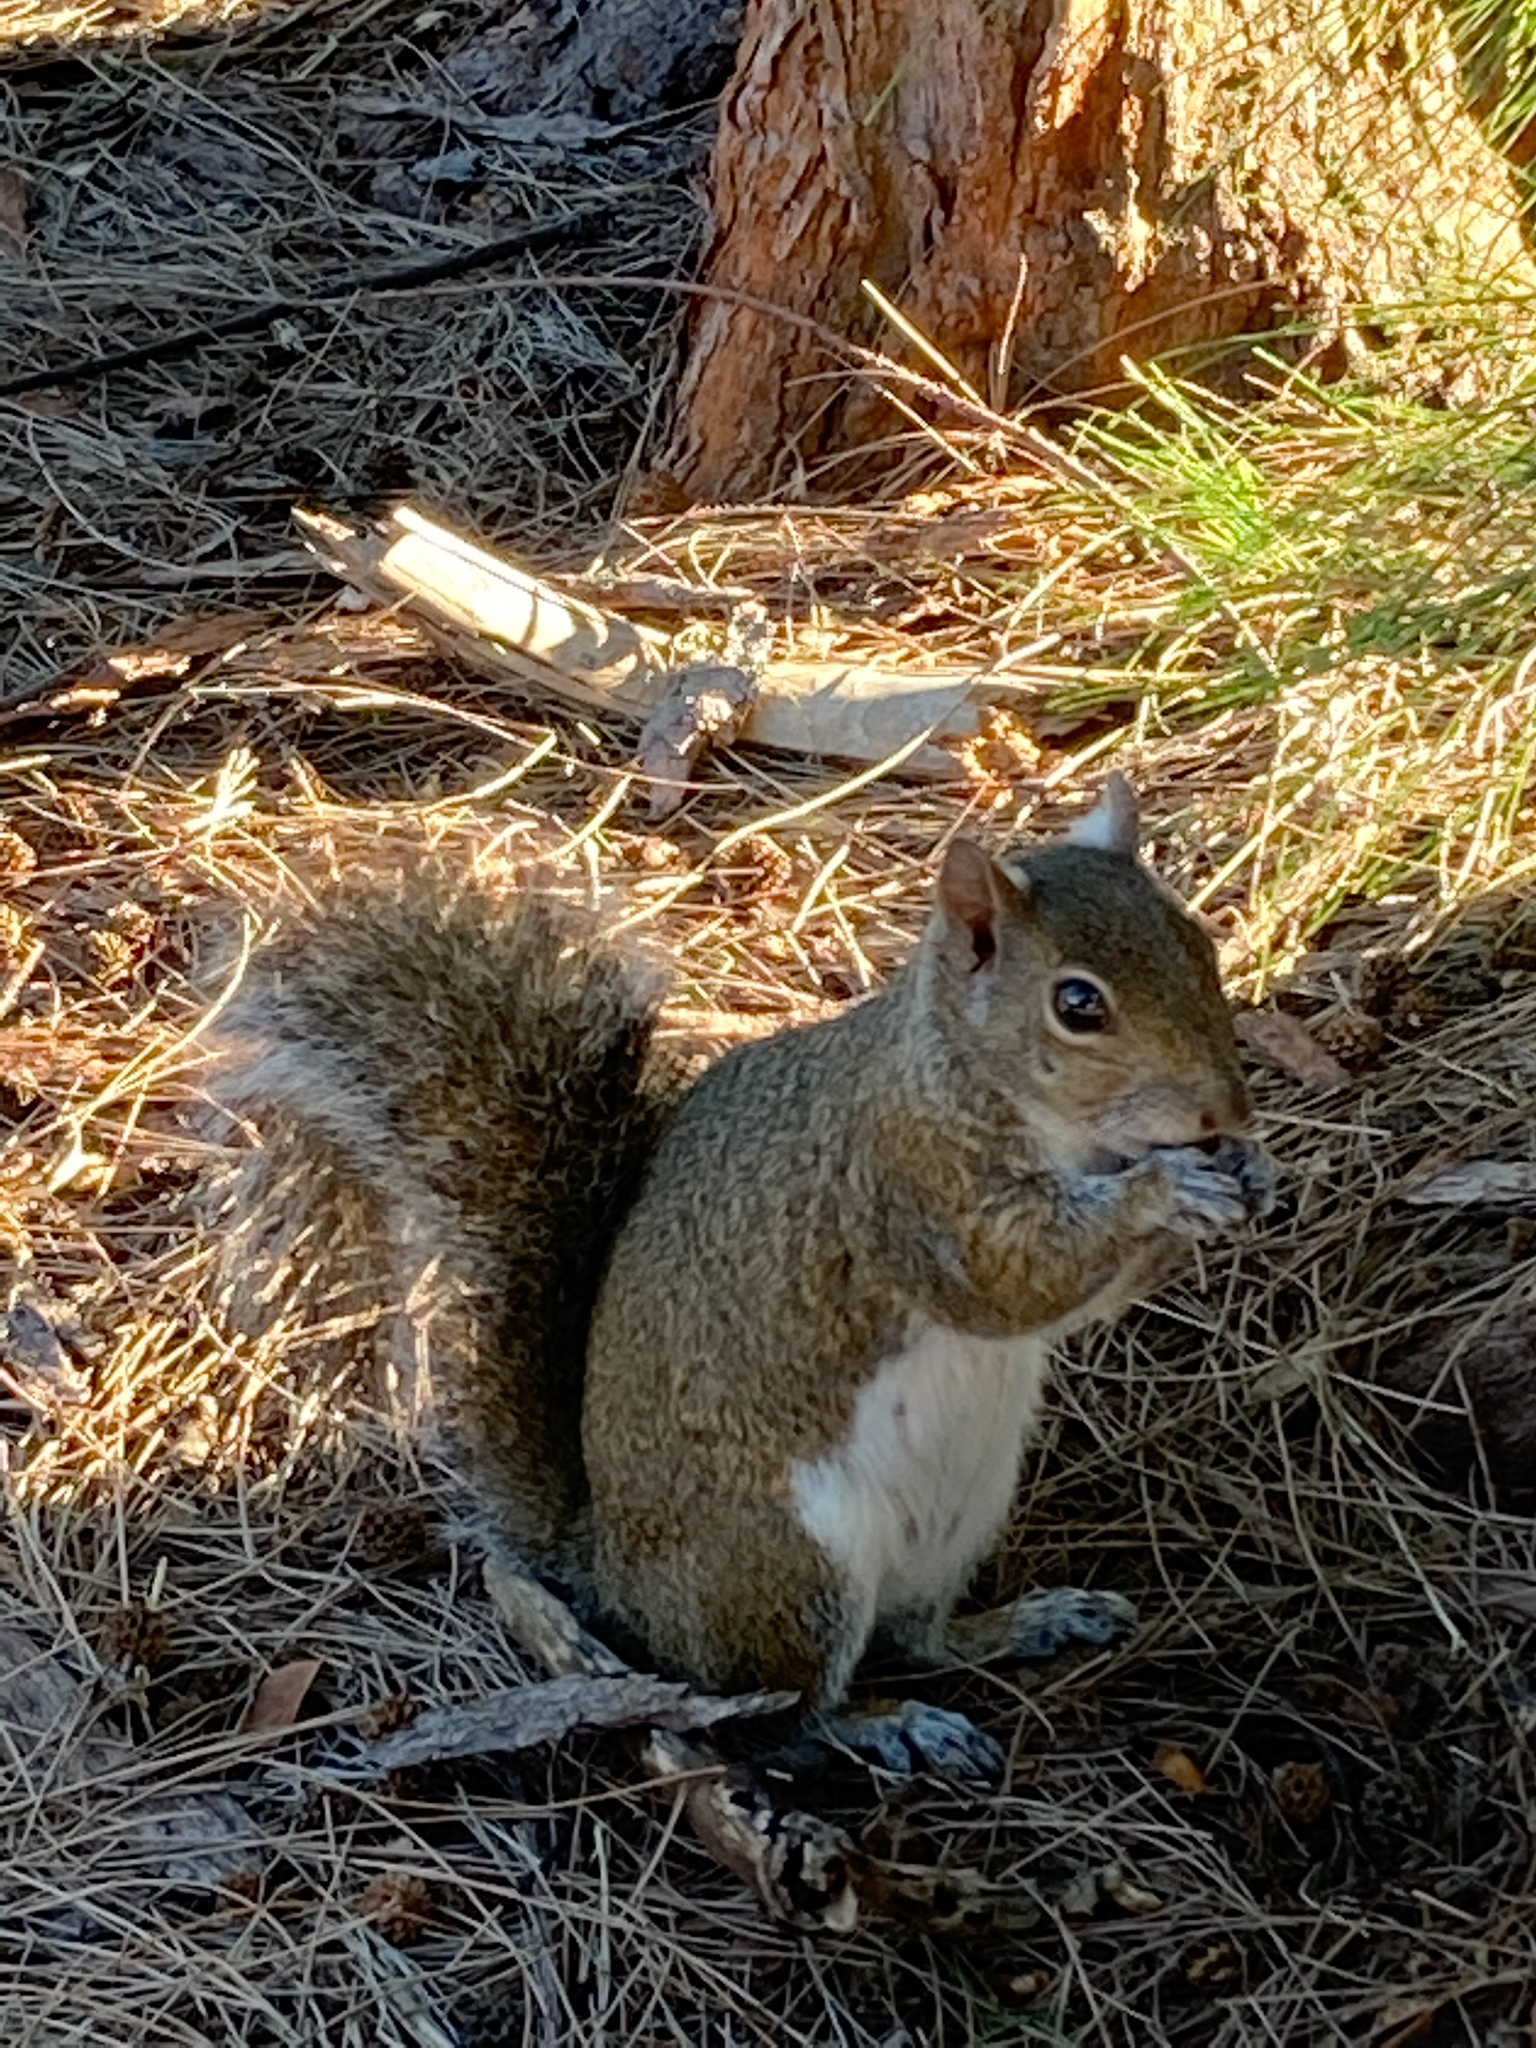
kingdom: Animalia
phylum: Chordata
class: Mammalia
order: Rodentia
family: Sciuridae
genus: Sciurus
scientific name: Sciurus carolinensis
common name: Eastern gray squirrel
